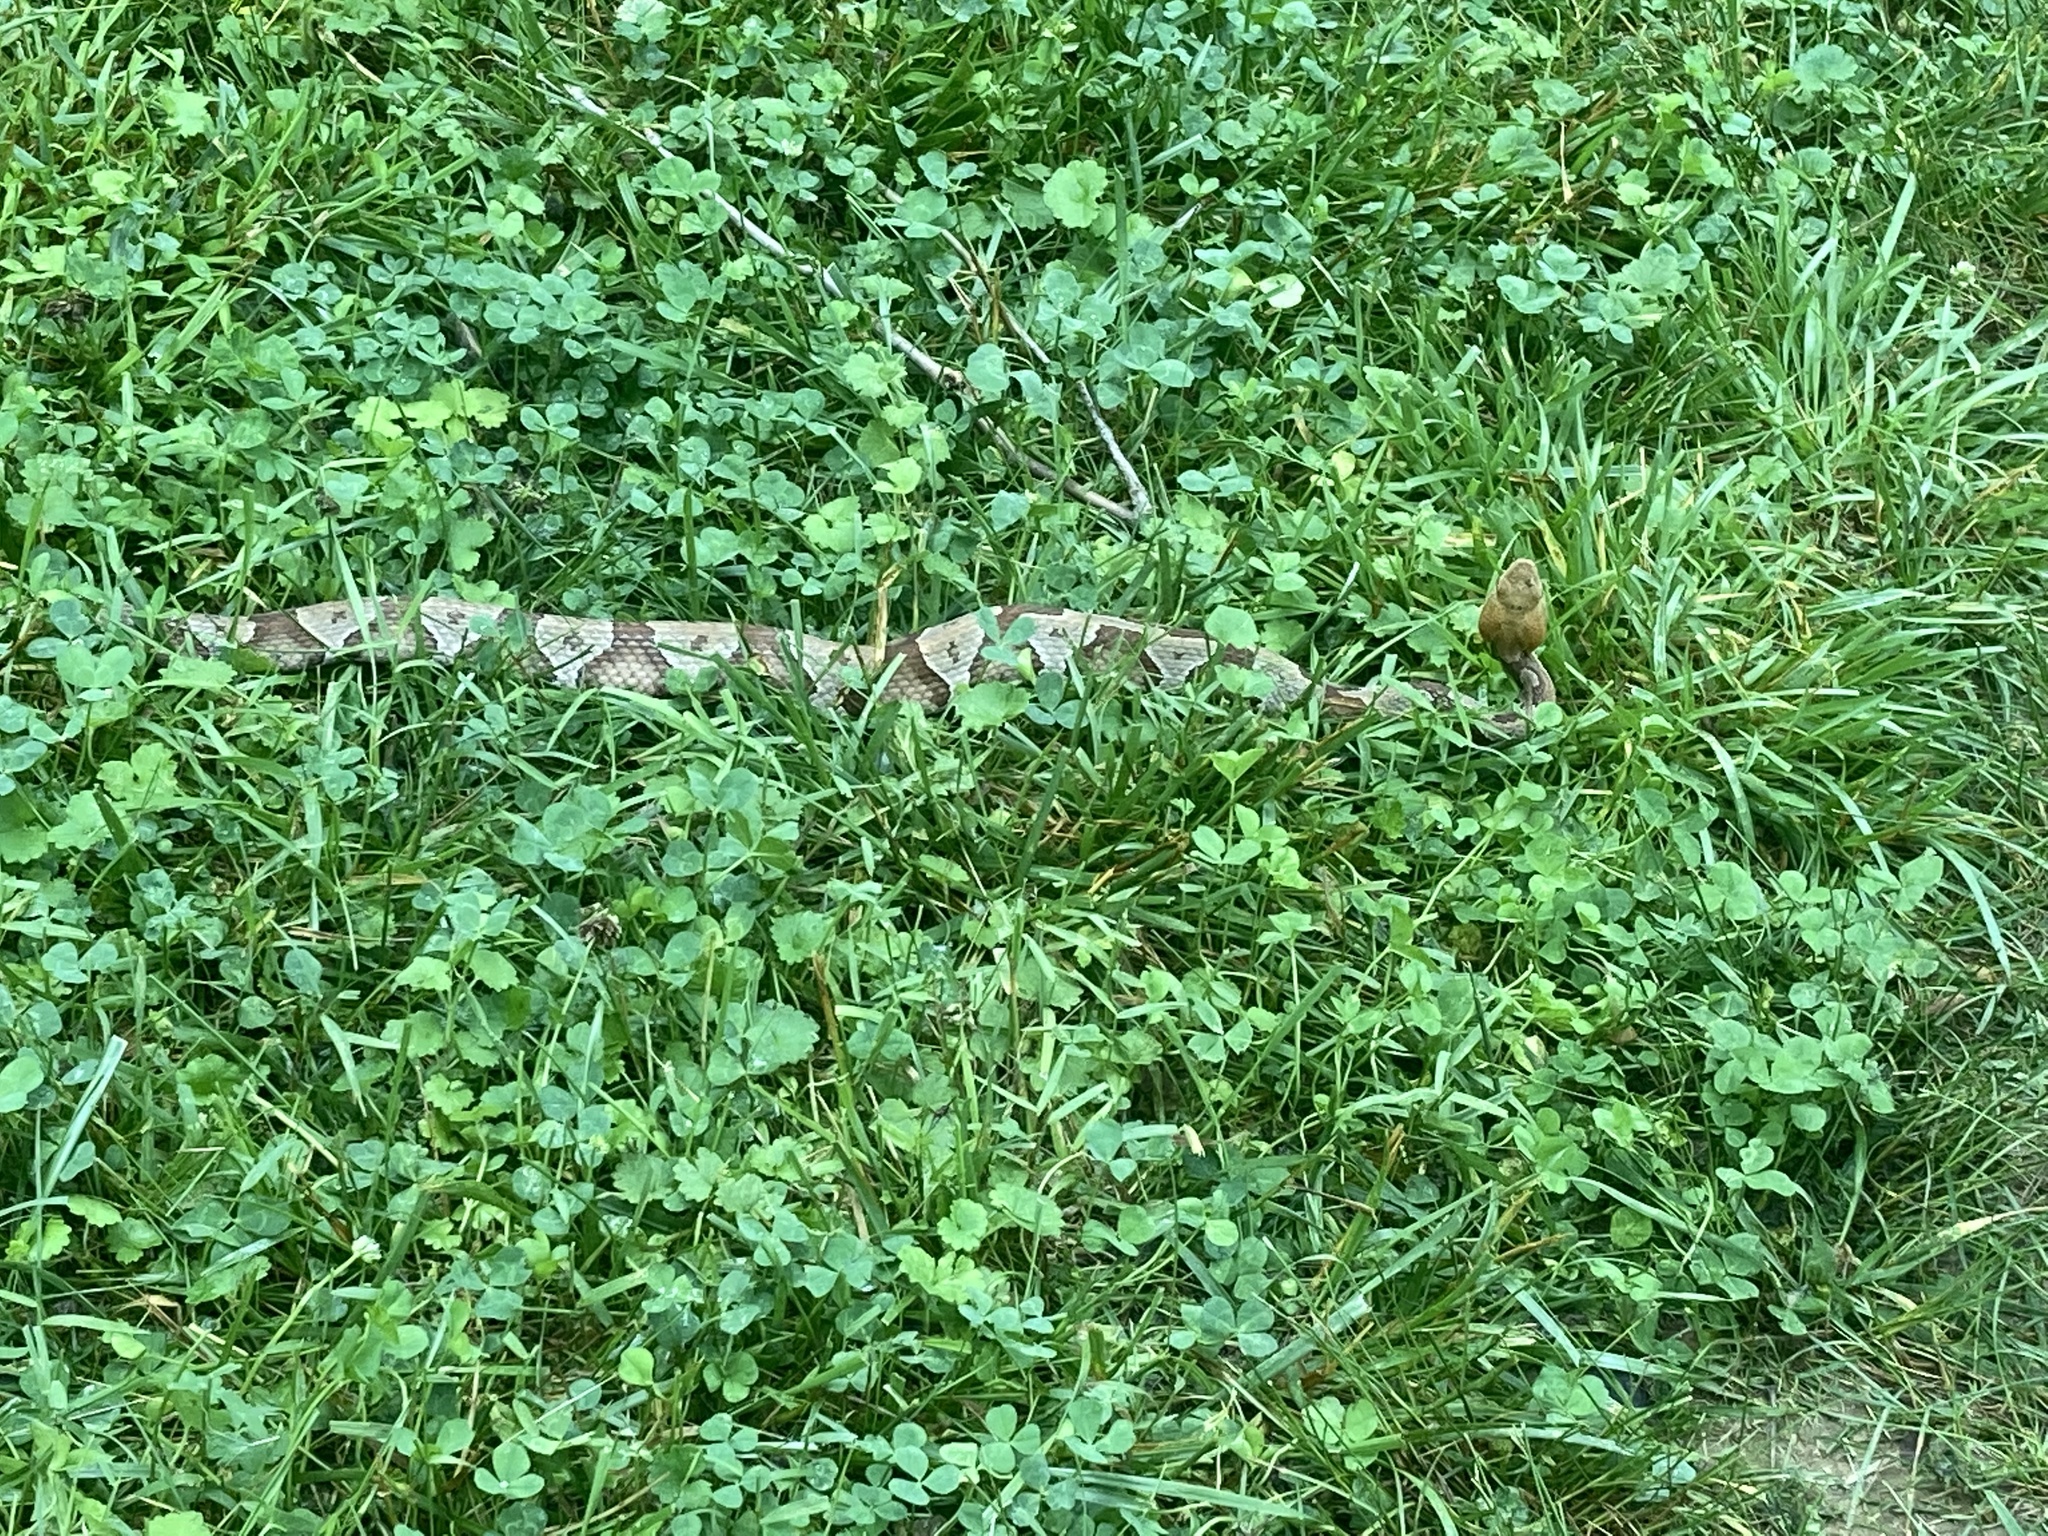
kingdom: Animalia
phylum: Chordata
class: Squamata
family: Viperidae
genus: Agkistrodon
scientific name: Agkistrodon contortrix
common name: Northern copperhead
